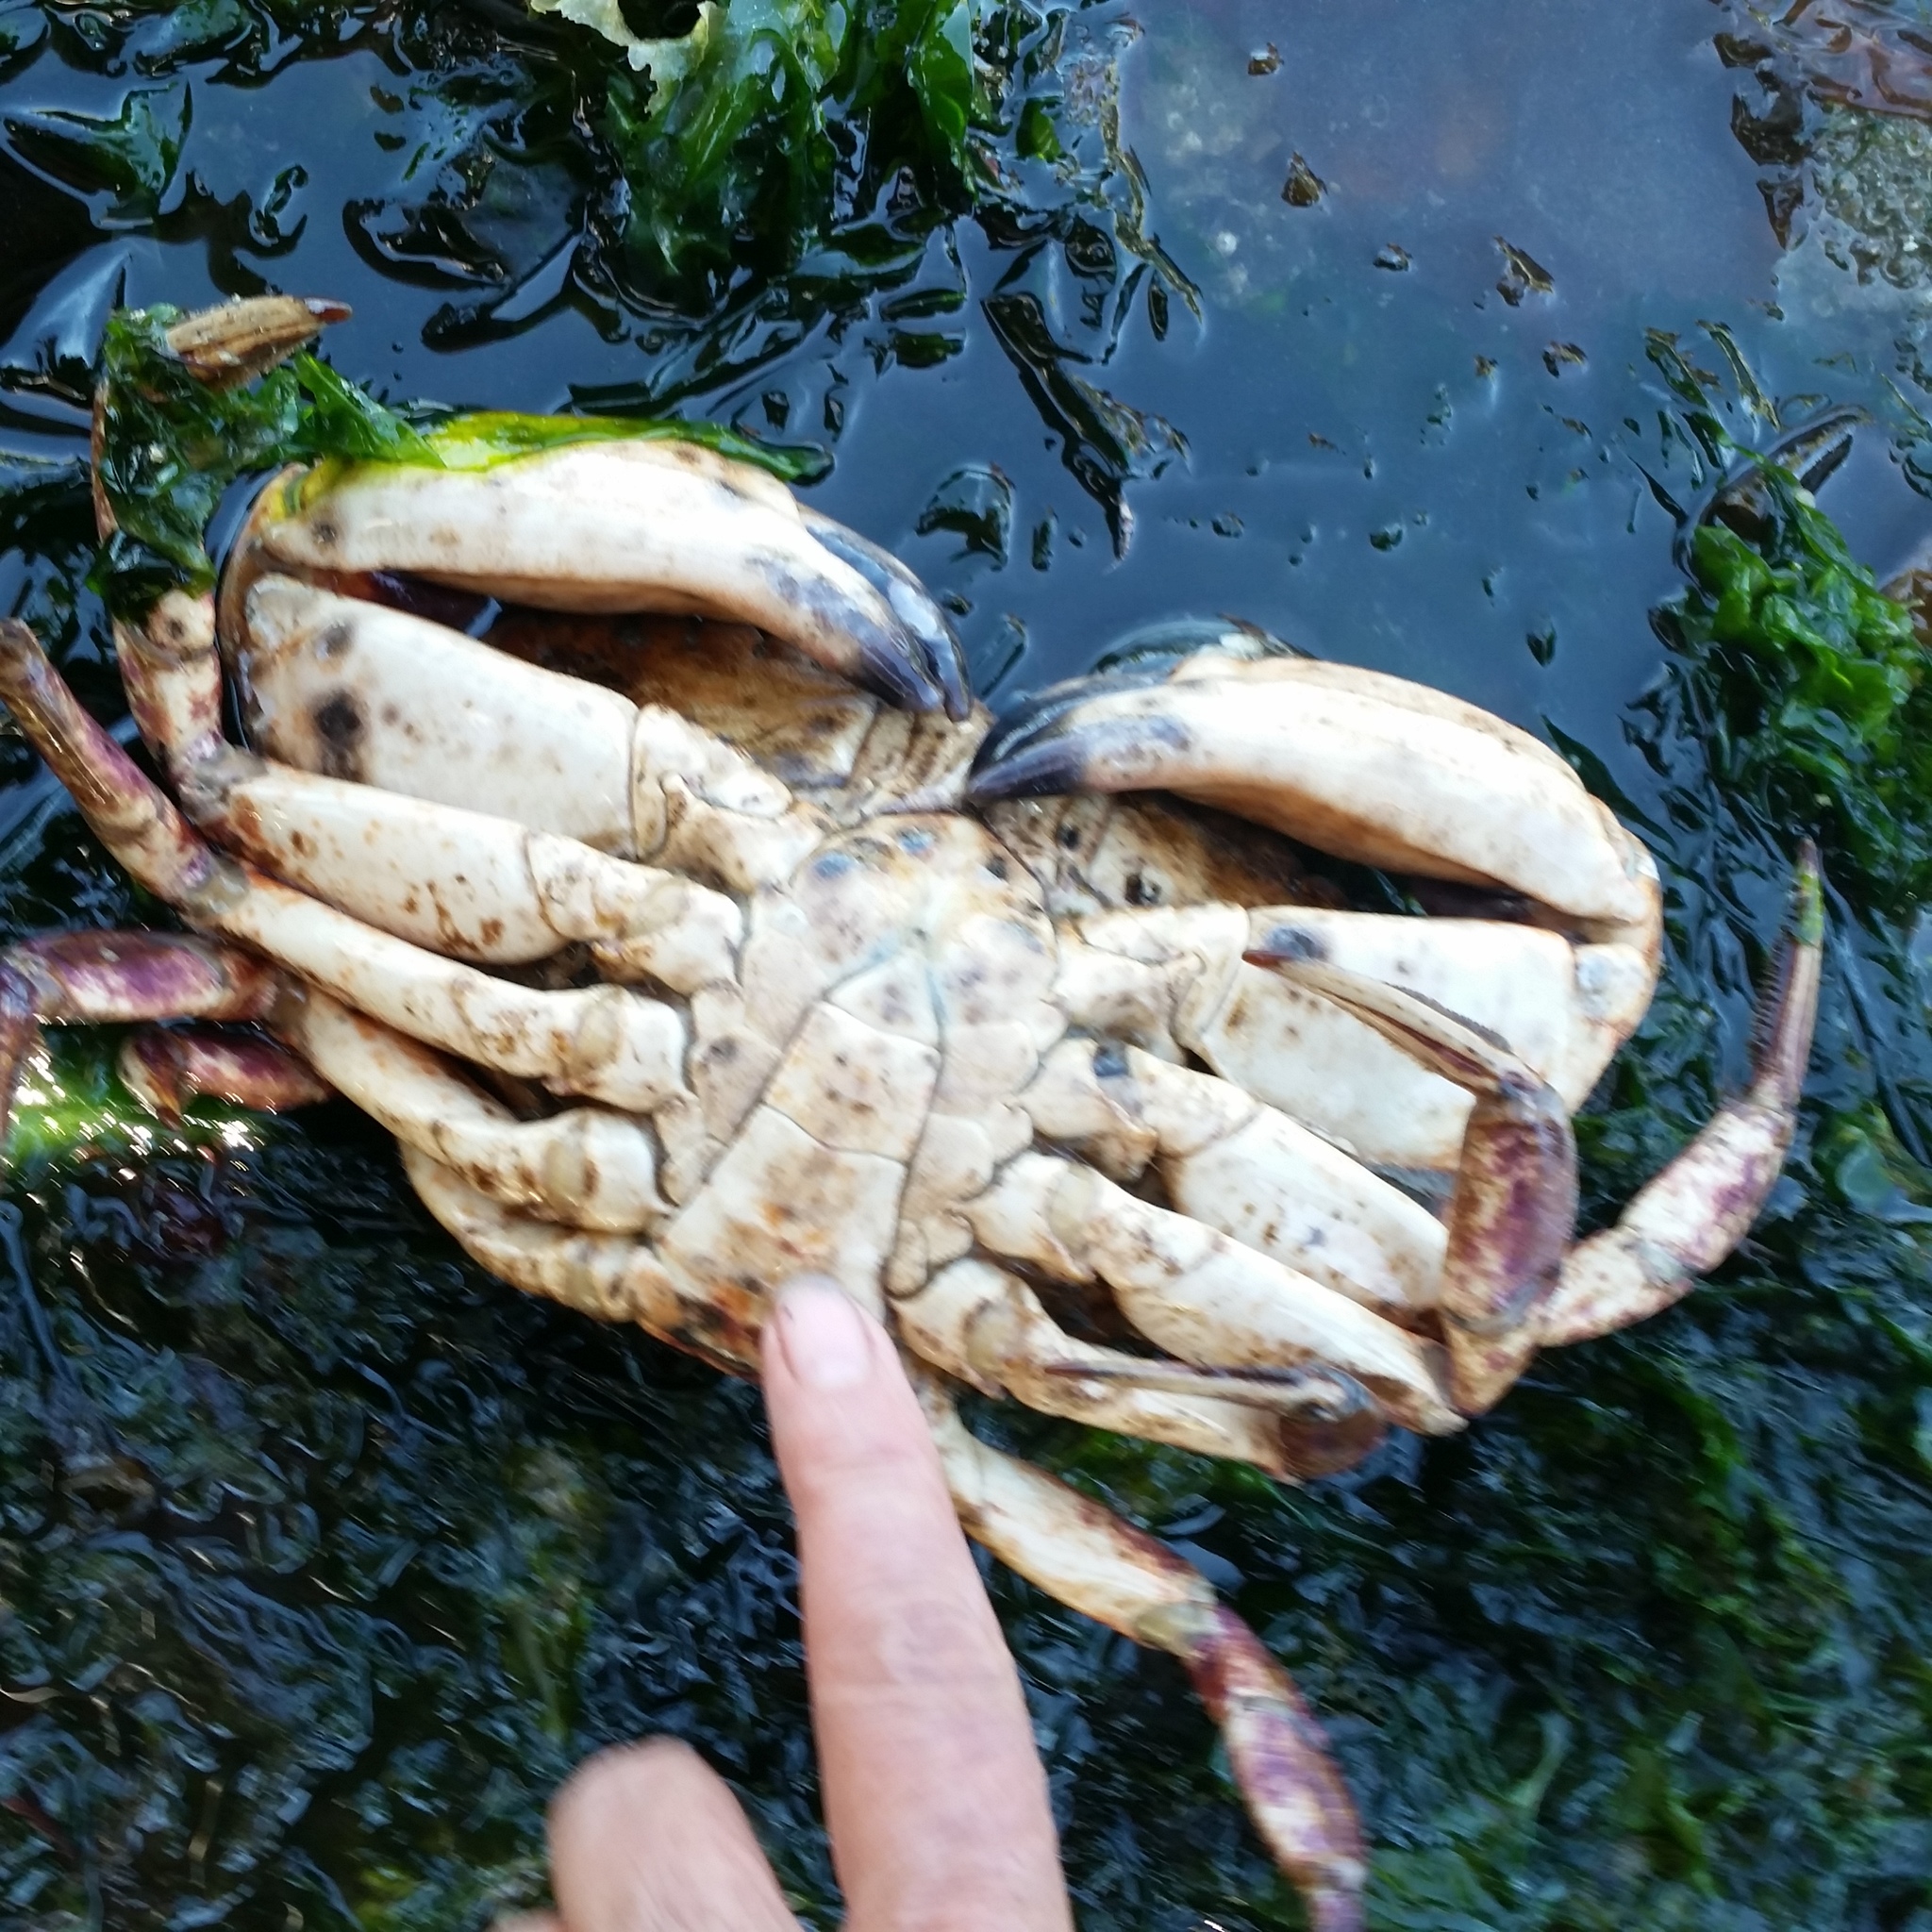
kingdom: Animalia
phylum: Arthropoda
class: Malacostraca
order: Decapoda
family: Cancridae
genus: Cancer
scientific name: Cancer productus
